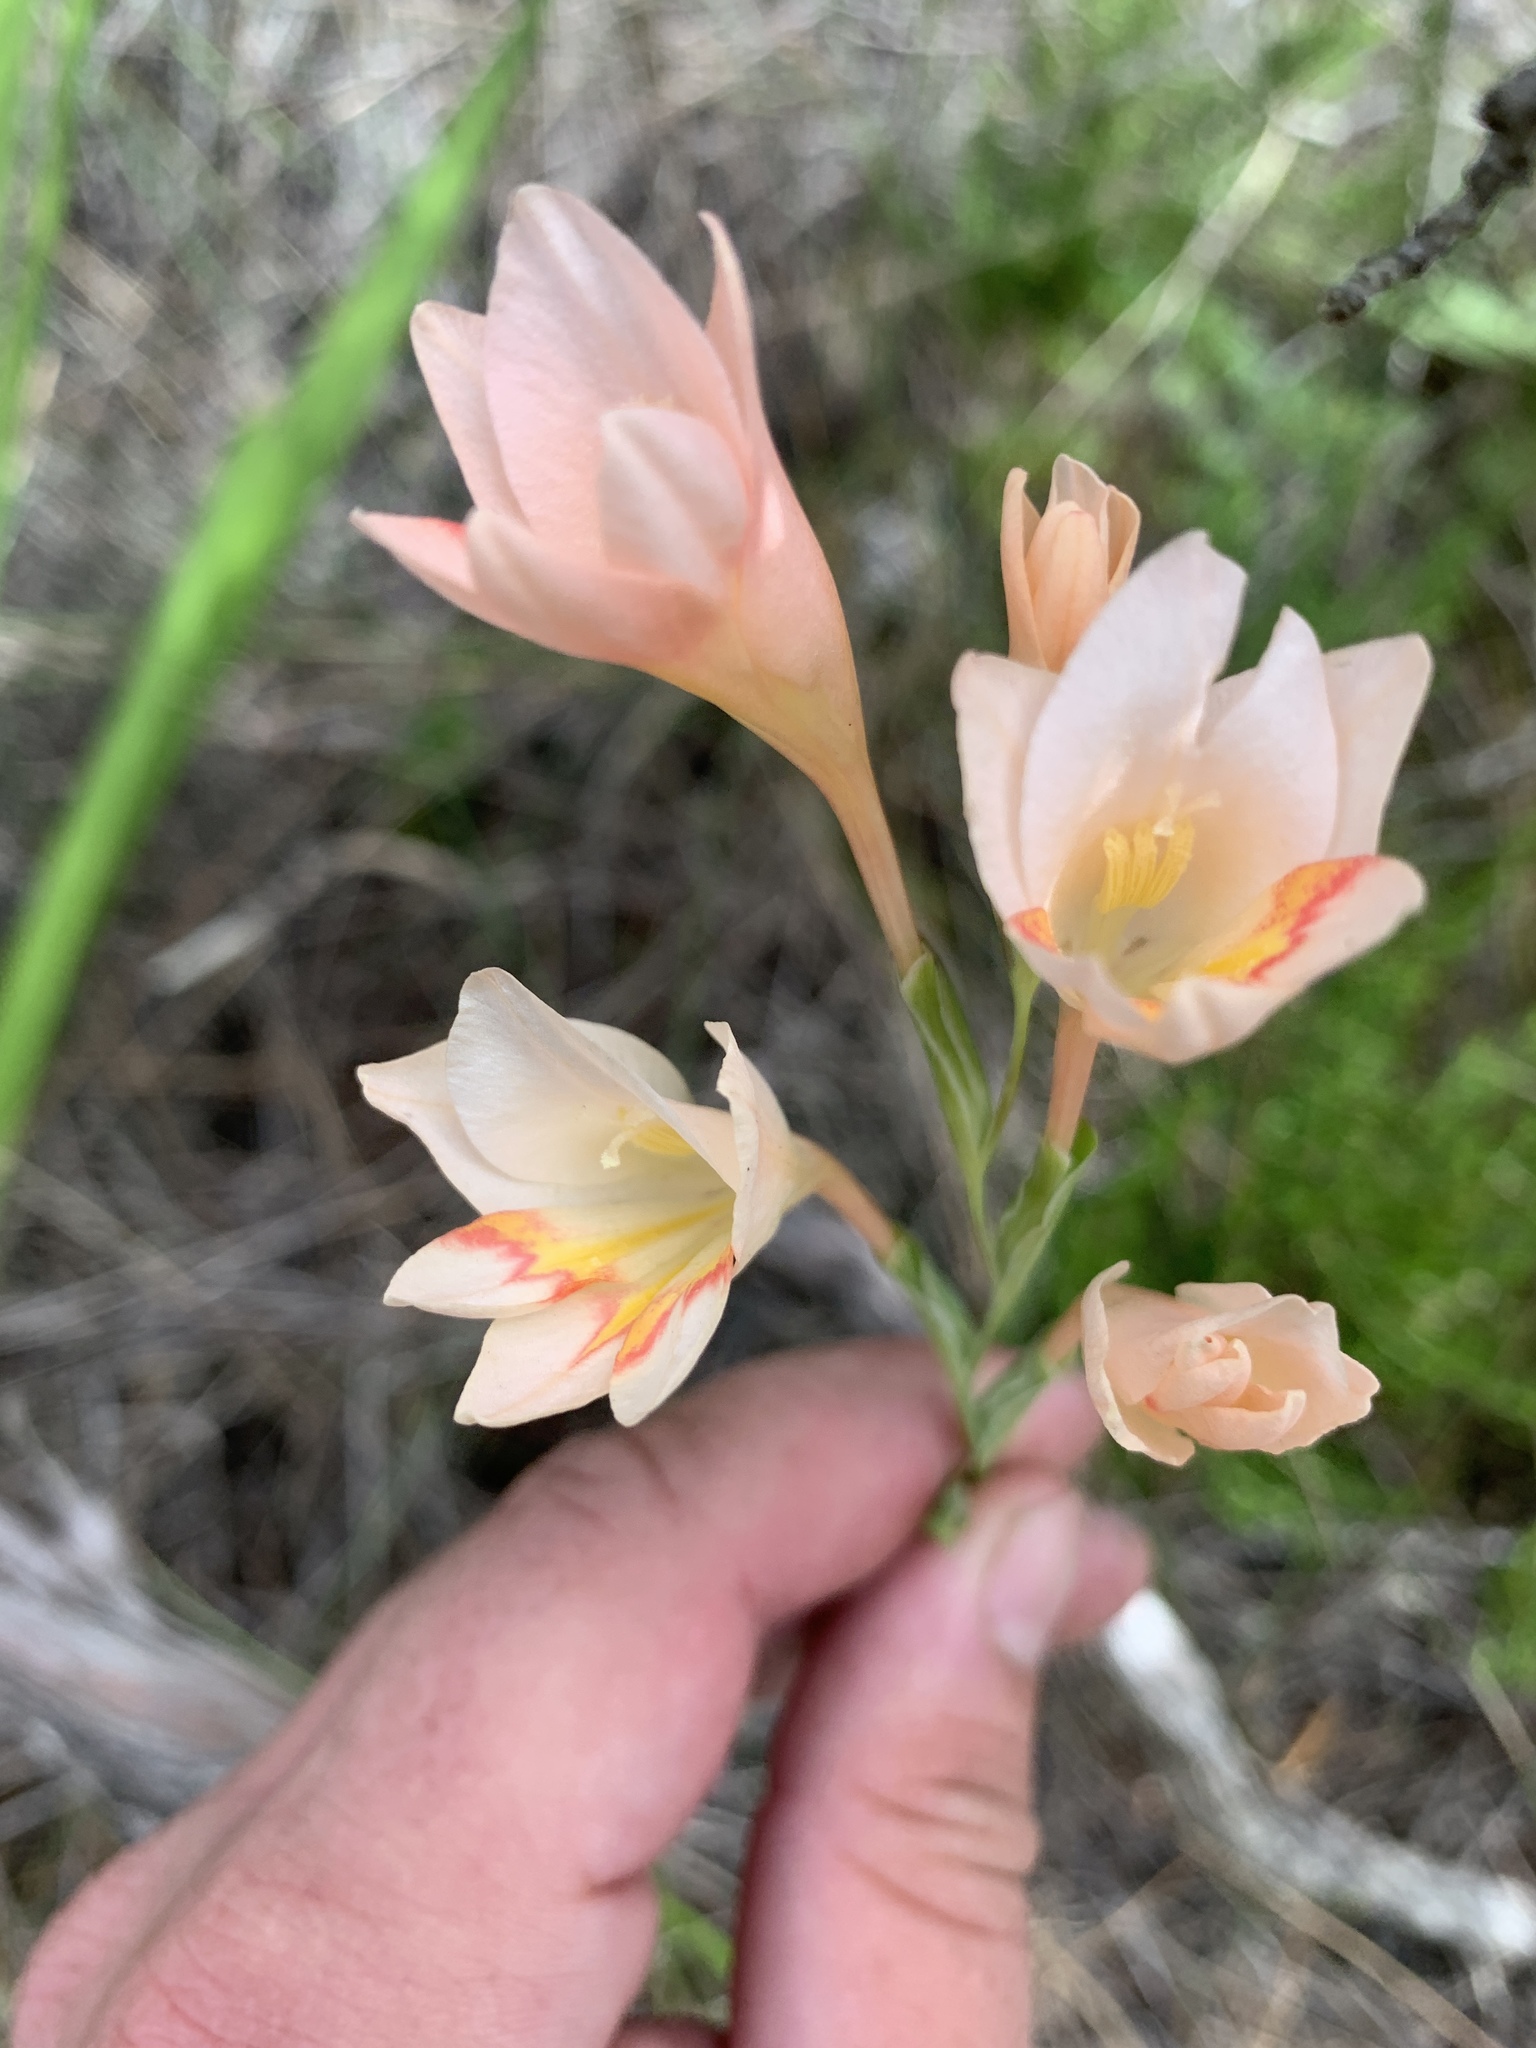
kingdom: Plantae
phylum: Tracheophyta
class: Liliopsida
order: Asparagales
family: Iridaceae
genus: Gladiolus
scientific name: Gladiolus monticola
